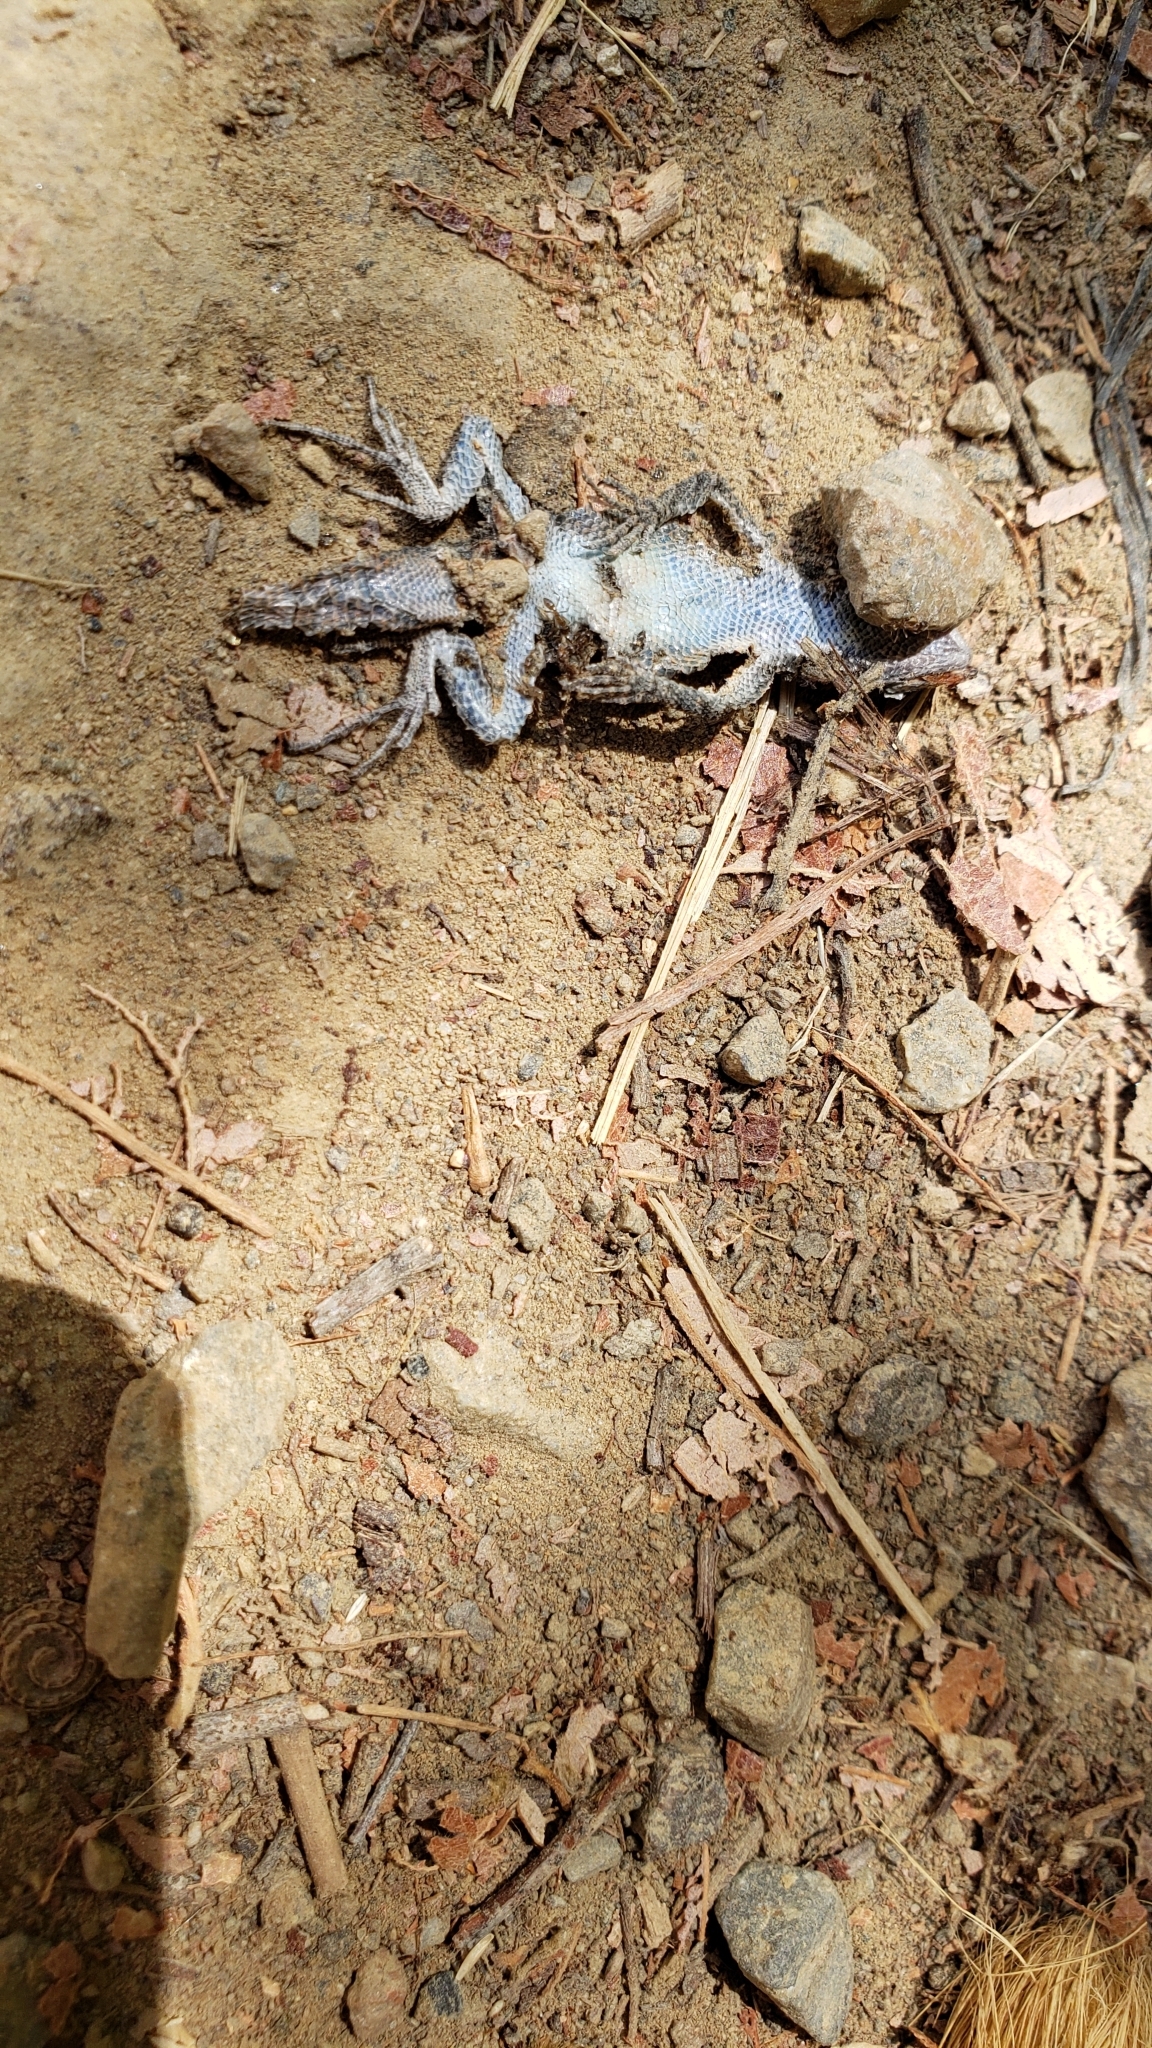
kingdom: Animalia
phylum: Chordata
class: Squamata
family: Phrynosomatidae
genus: Sceloporus
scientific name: Sceloporus occidentalis
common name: Western fence lizard
